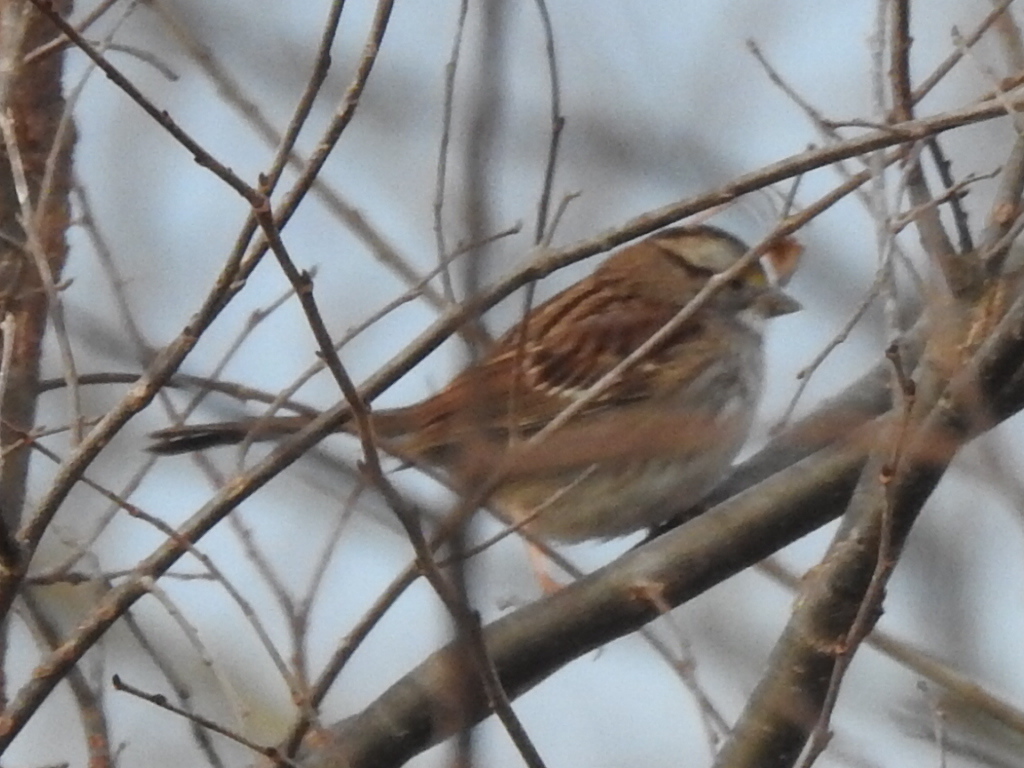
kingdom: Animalia
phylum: Chordata
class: Aves
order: Passeriformes
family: Passerellidae
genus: Zonotrichia
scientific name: Zonotrichia albicollis
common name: White-throated sparrow
